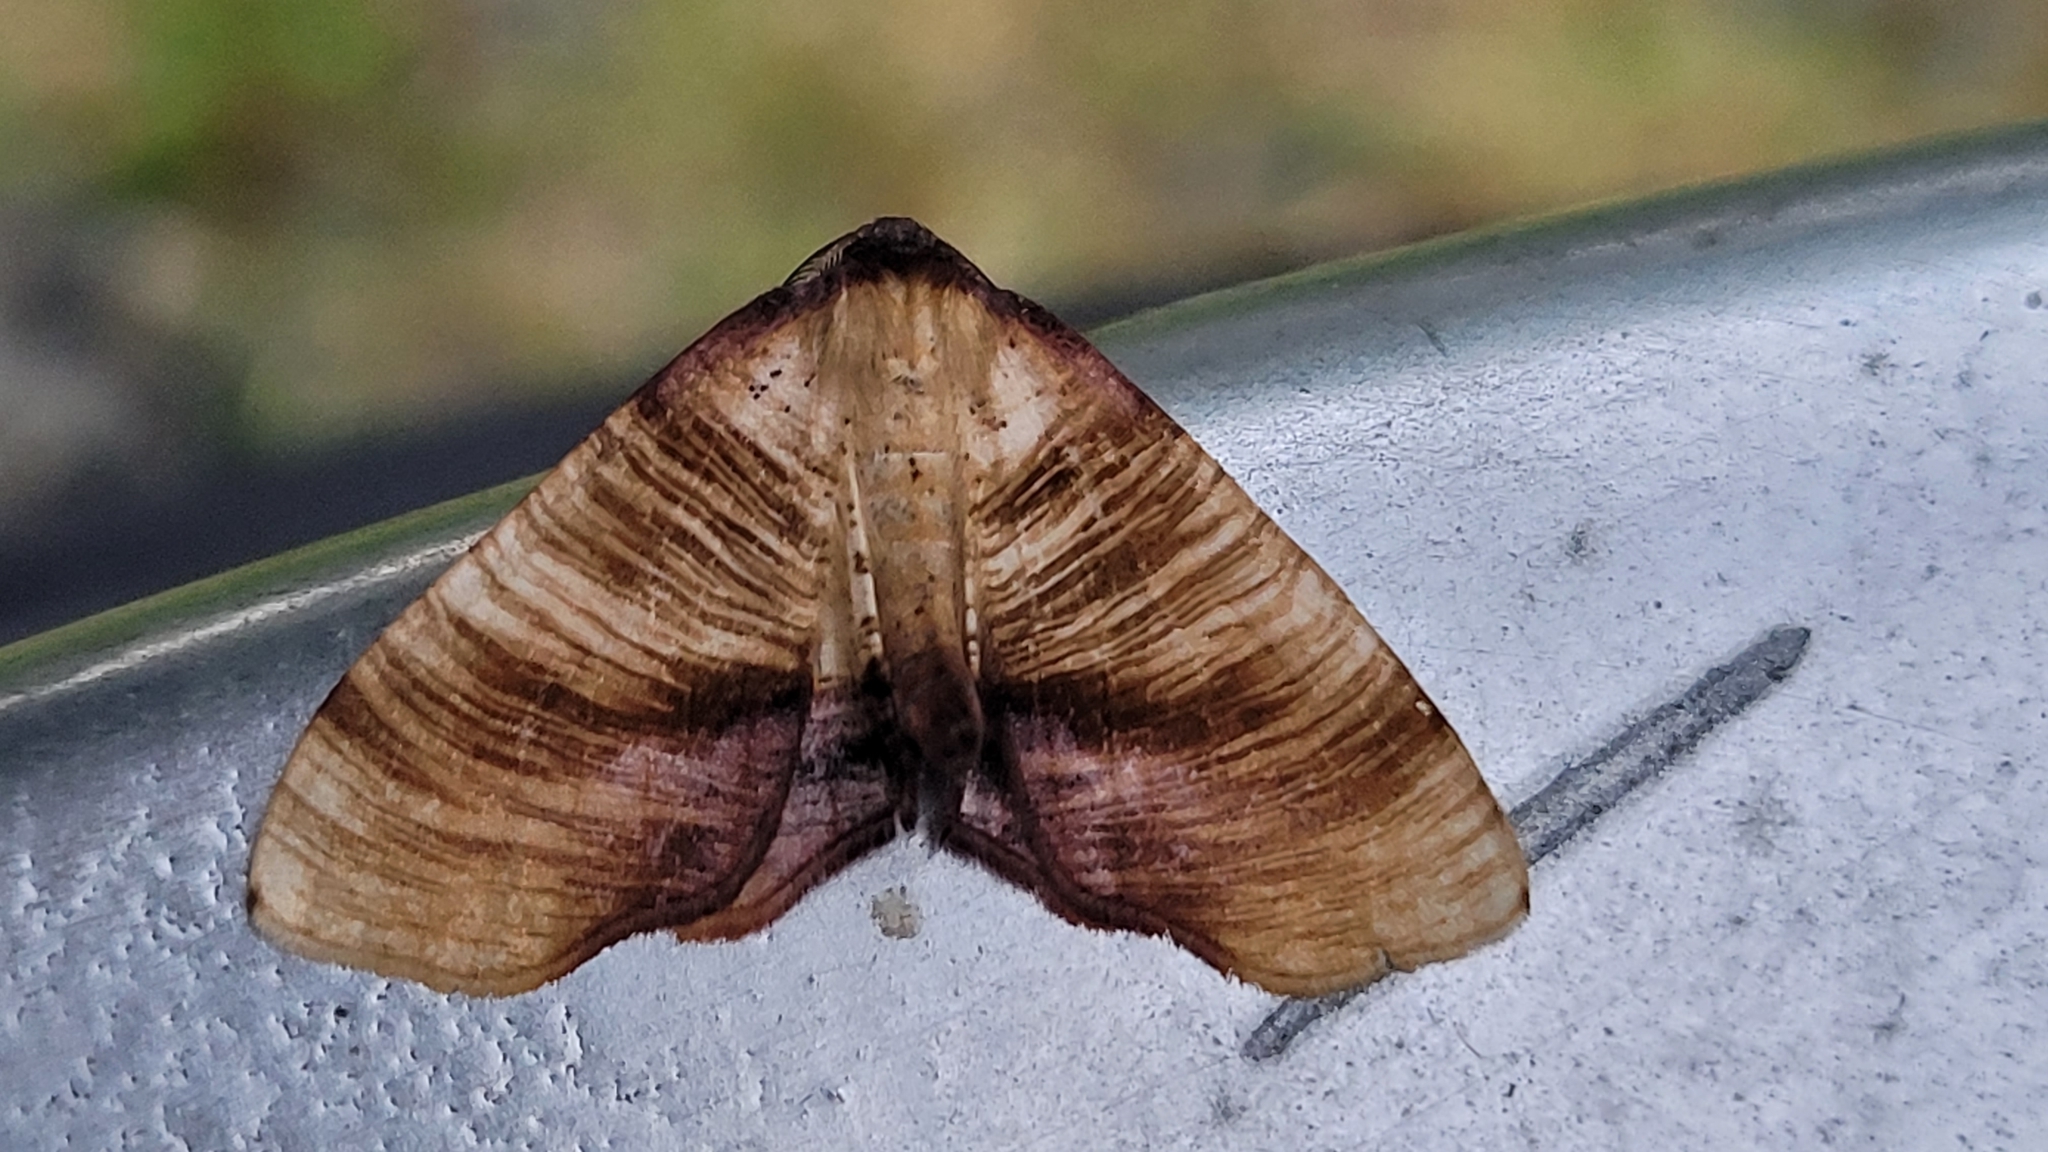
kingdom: Animalia
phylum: Arthropoda
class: Insecta
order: Lepidoptera
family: Geometridae
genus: Plagodis
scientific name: Plagodis dolabraria
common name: Scorched wing
